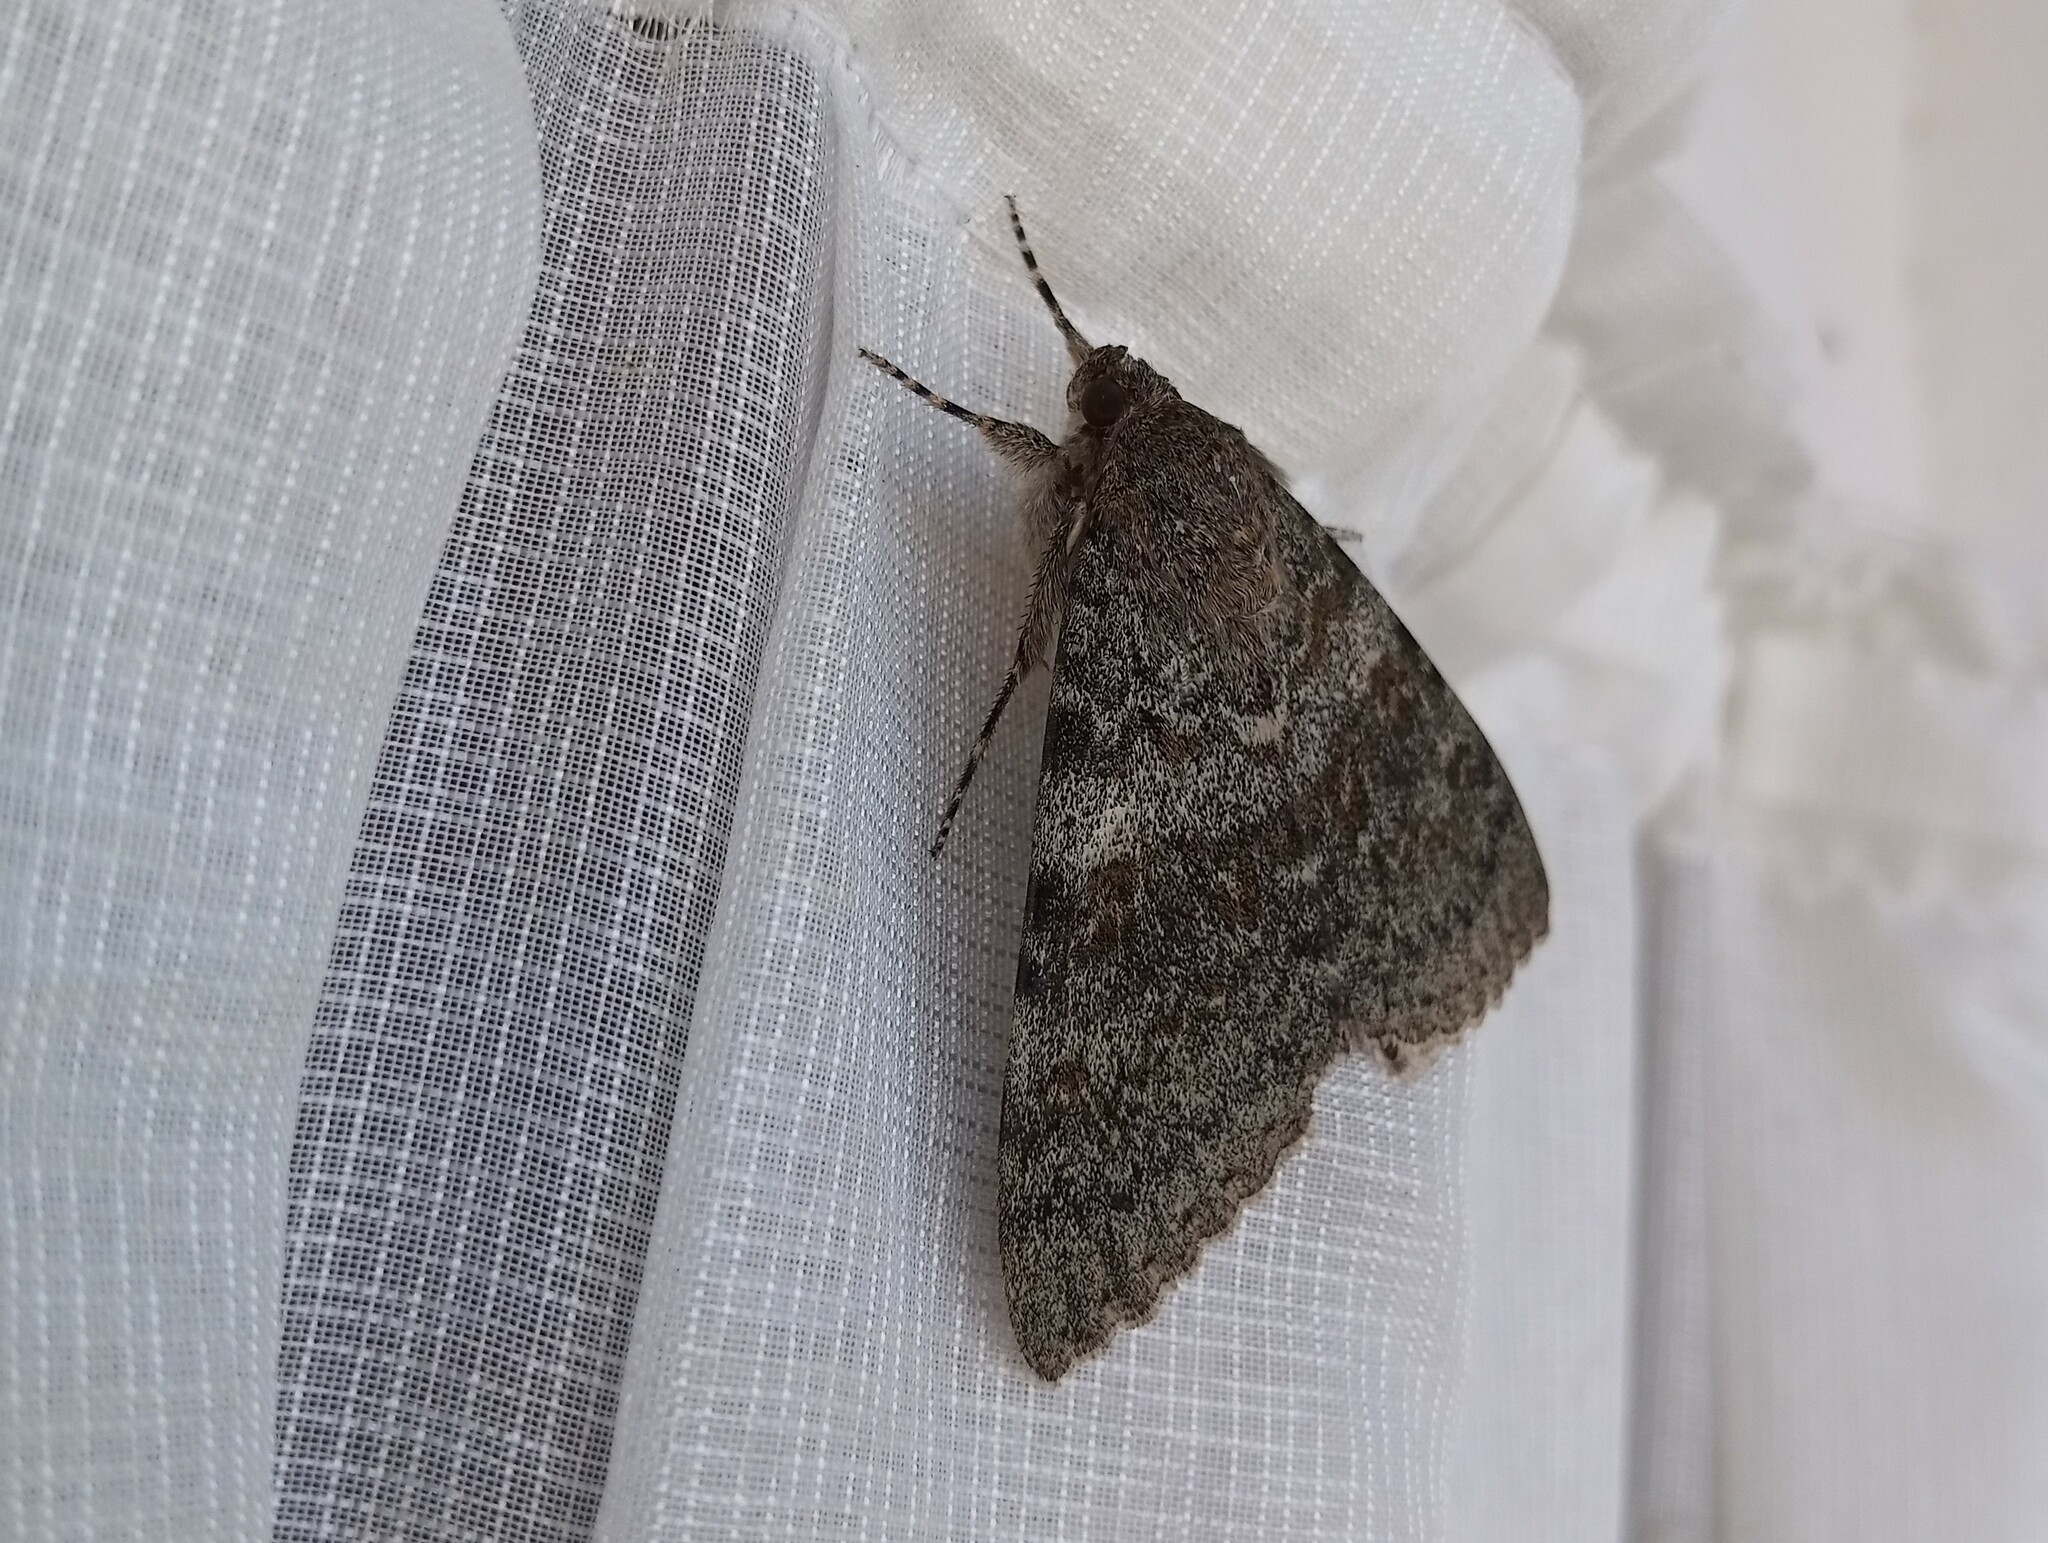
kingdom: Animalia
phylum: Arthropoda
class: Insecta
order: Lepidoptera
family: Erebidae
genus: Catocala
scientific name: Catocala elocata
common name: French red underwing
